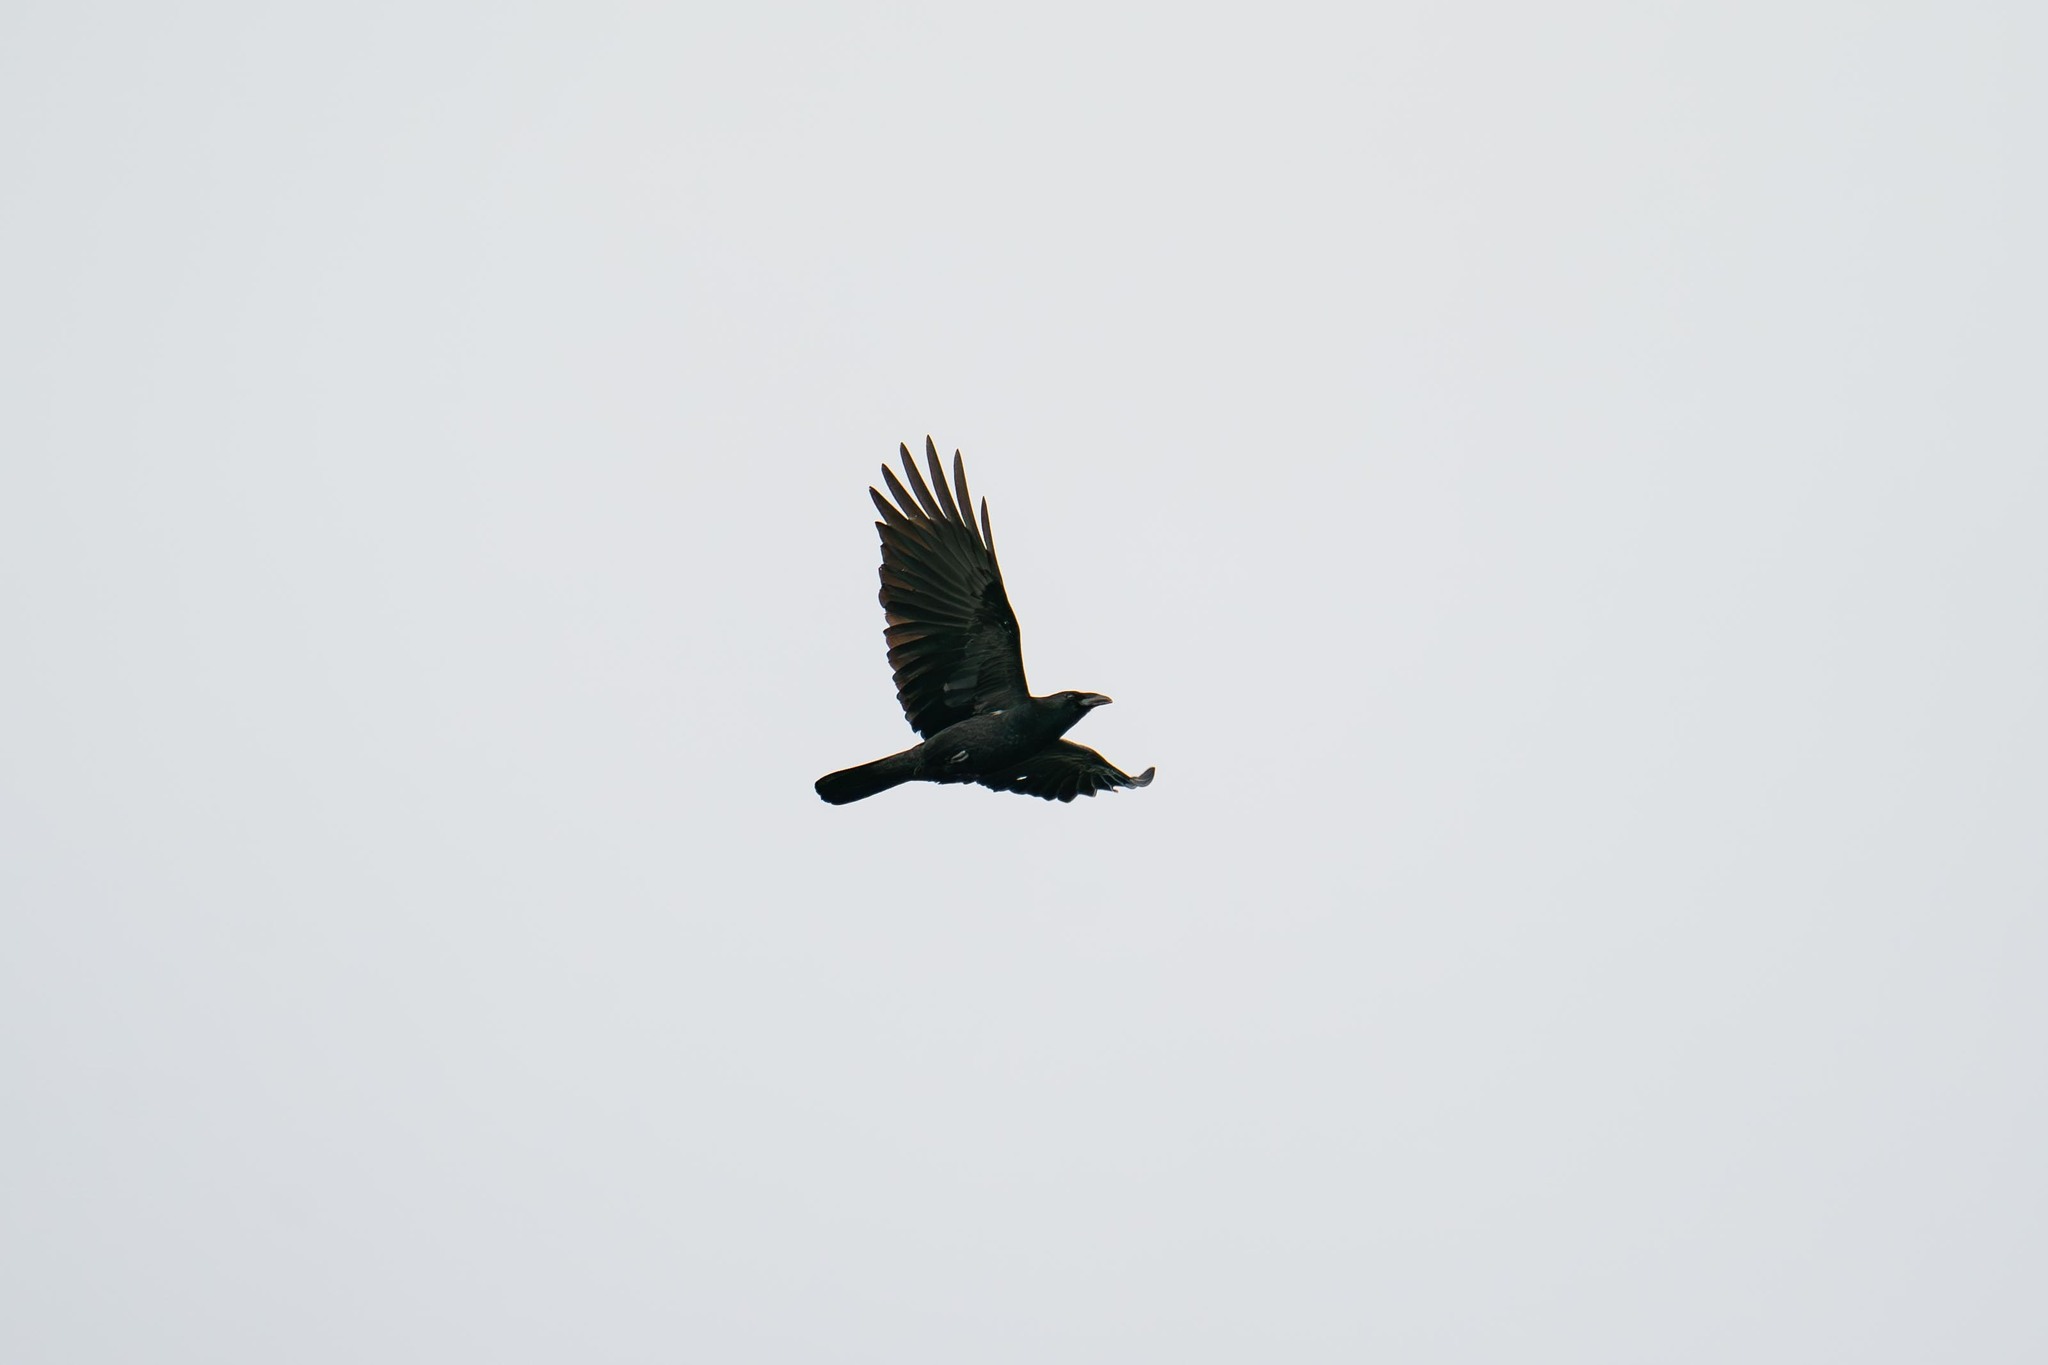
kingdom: Animalia
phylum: Chordata
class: Aves
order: Passeriformes
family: Corvidae
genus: Corvus
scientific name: Corvus brachyrhynchos
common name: American crow
